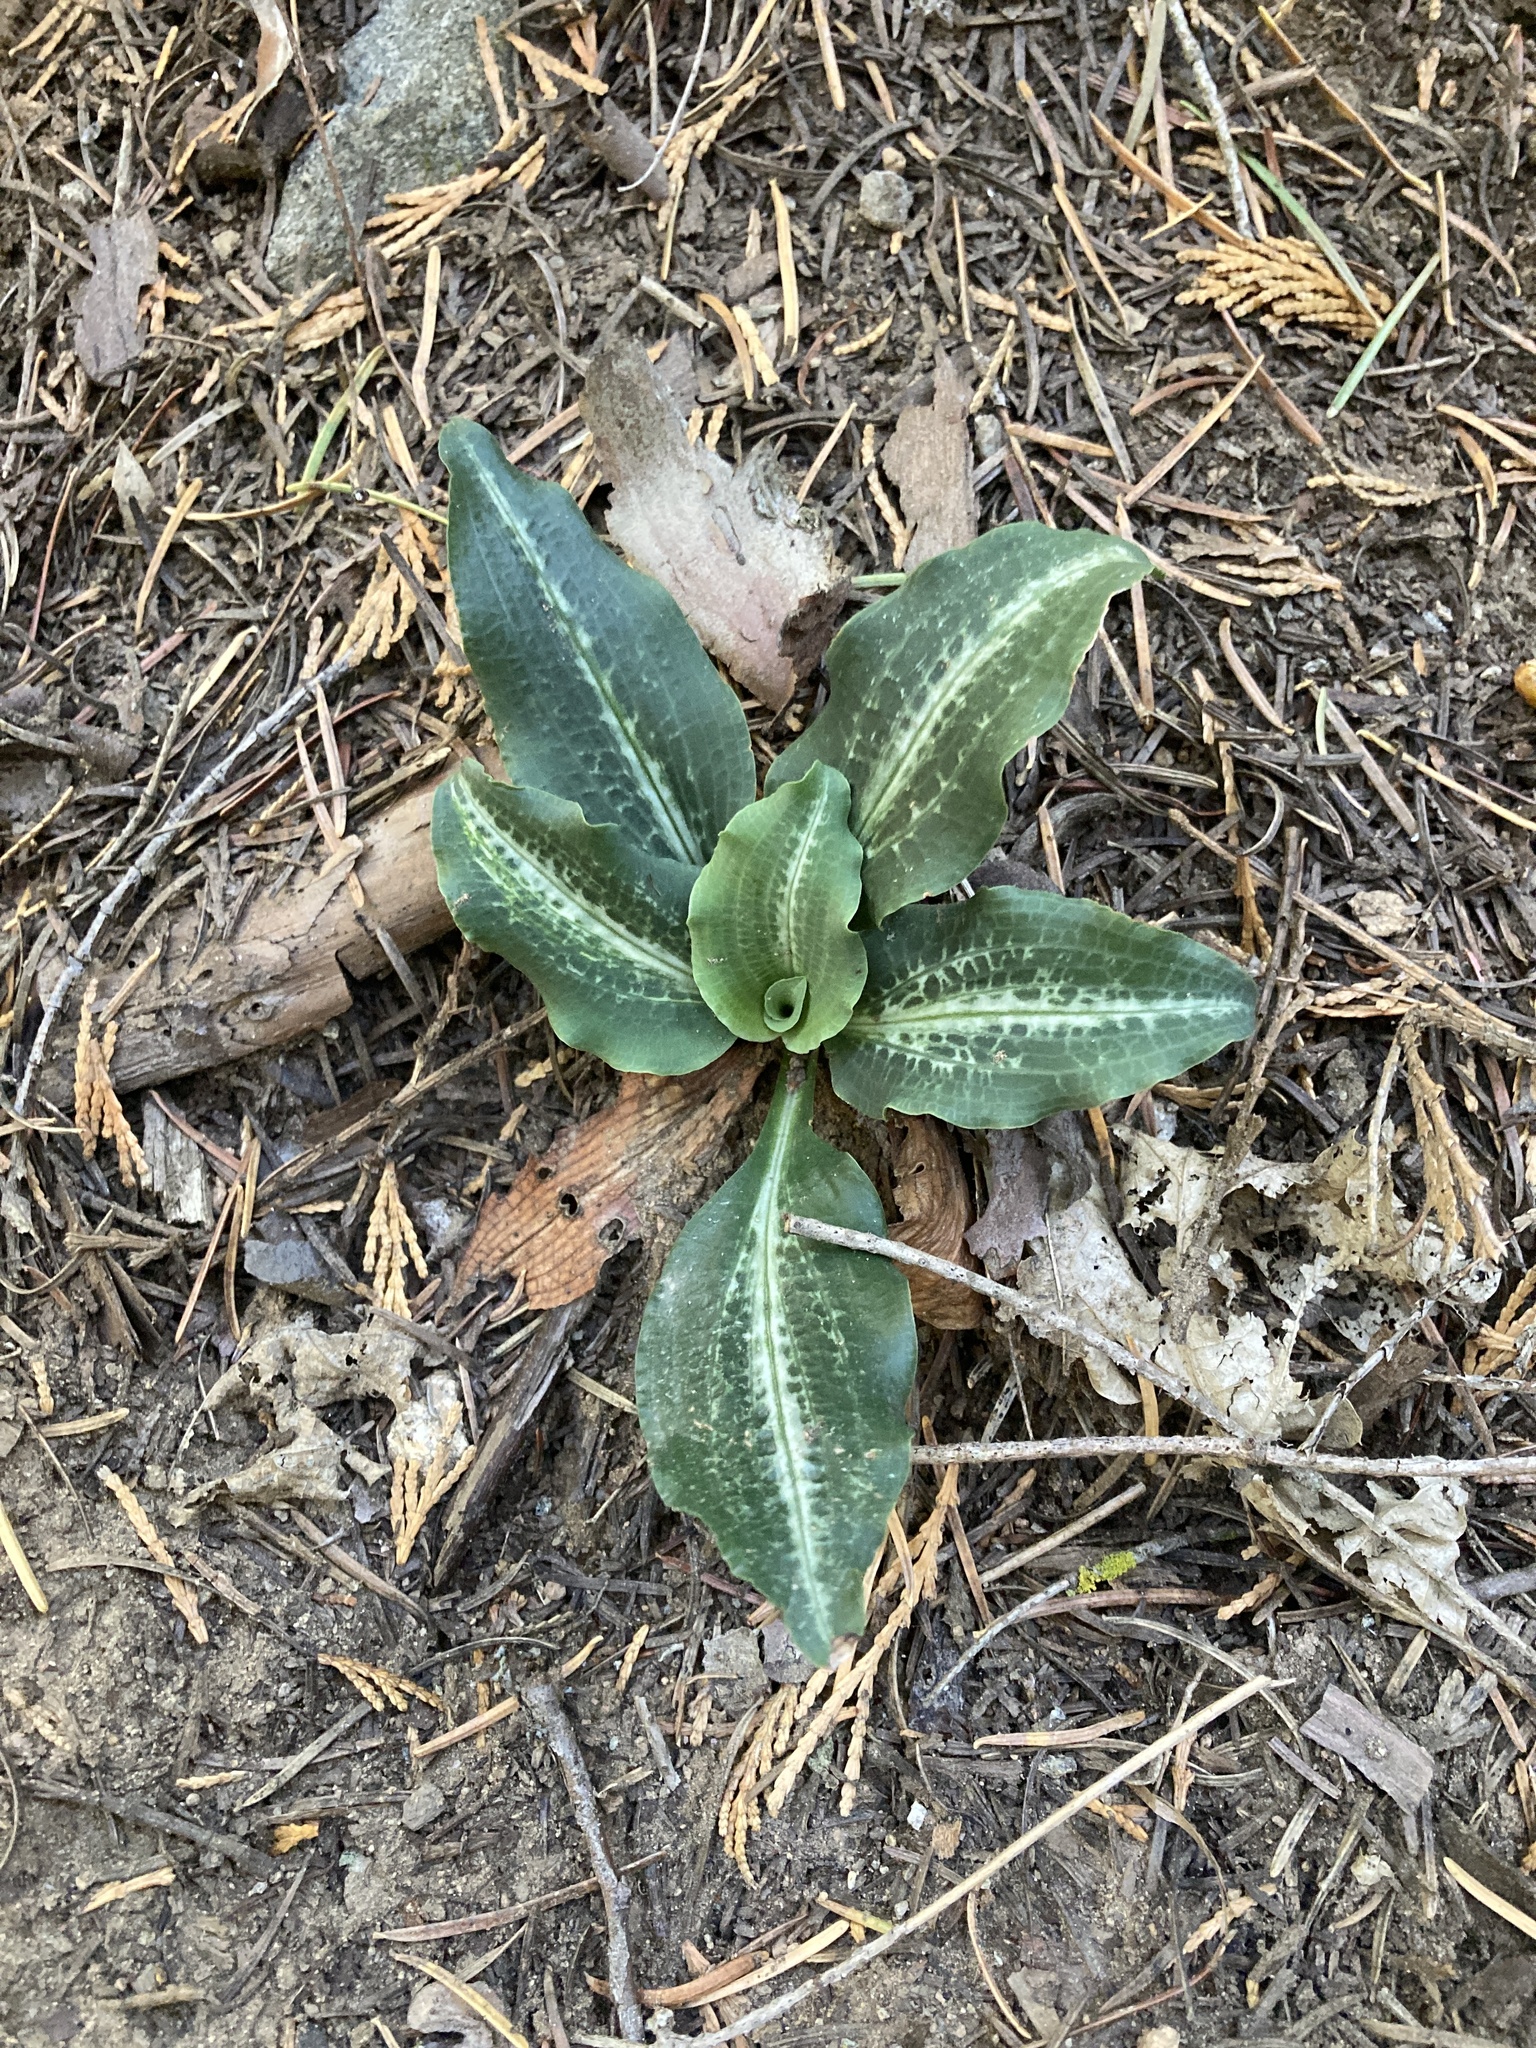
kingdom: Plantae
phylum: Tracheophyta
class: Liliopsida
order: Asparagales
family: Orchidaceae
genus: Goodyera
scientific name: Goodyera oblongifolia
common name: Giant rattlesnake-plantain
